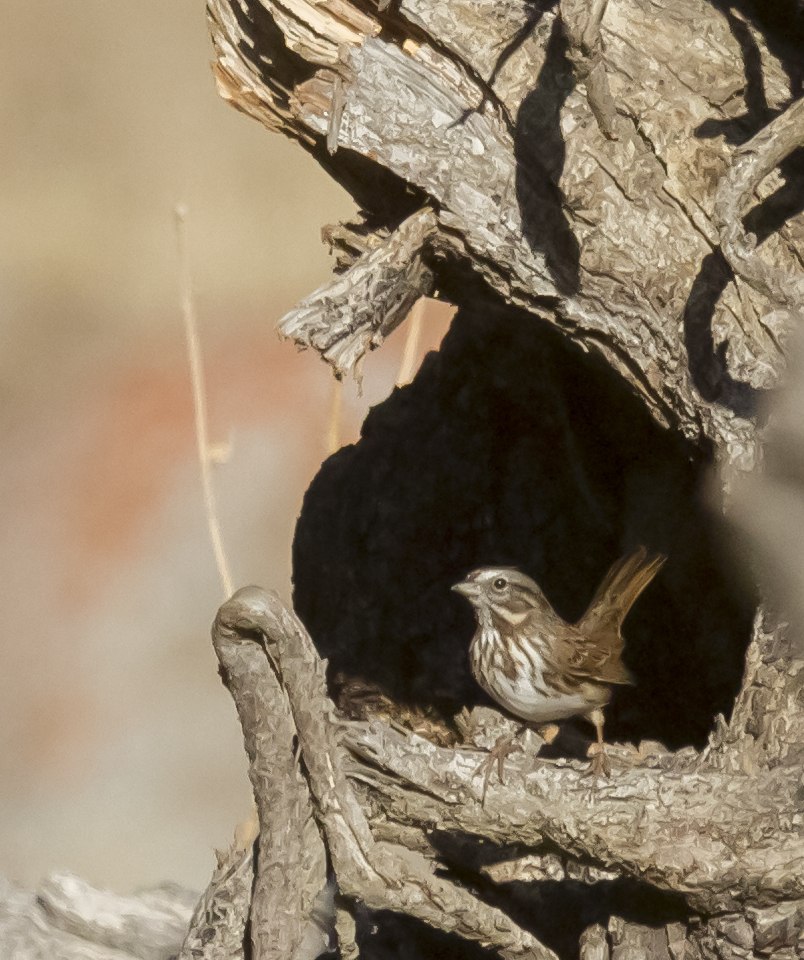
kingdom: Animalia
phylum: Chordata
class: Aves
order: Passeriformes
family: Passerellidae
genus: Melospiza
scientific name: Melospiza melodia
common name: Song sparrow
